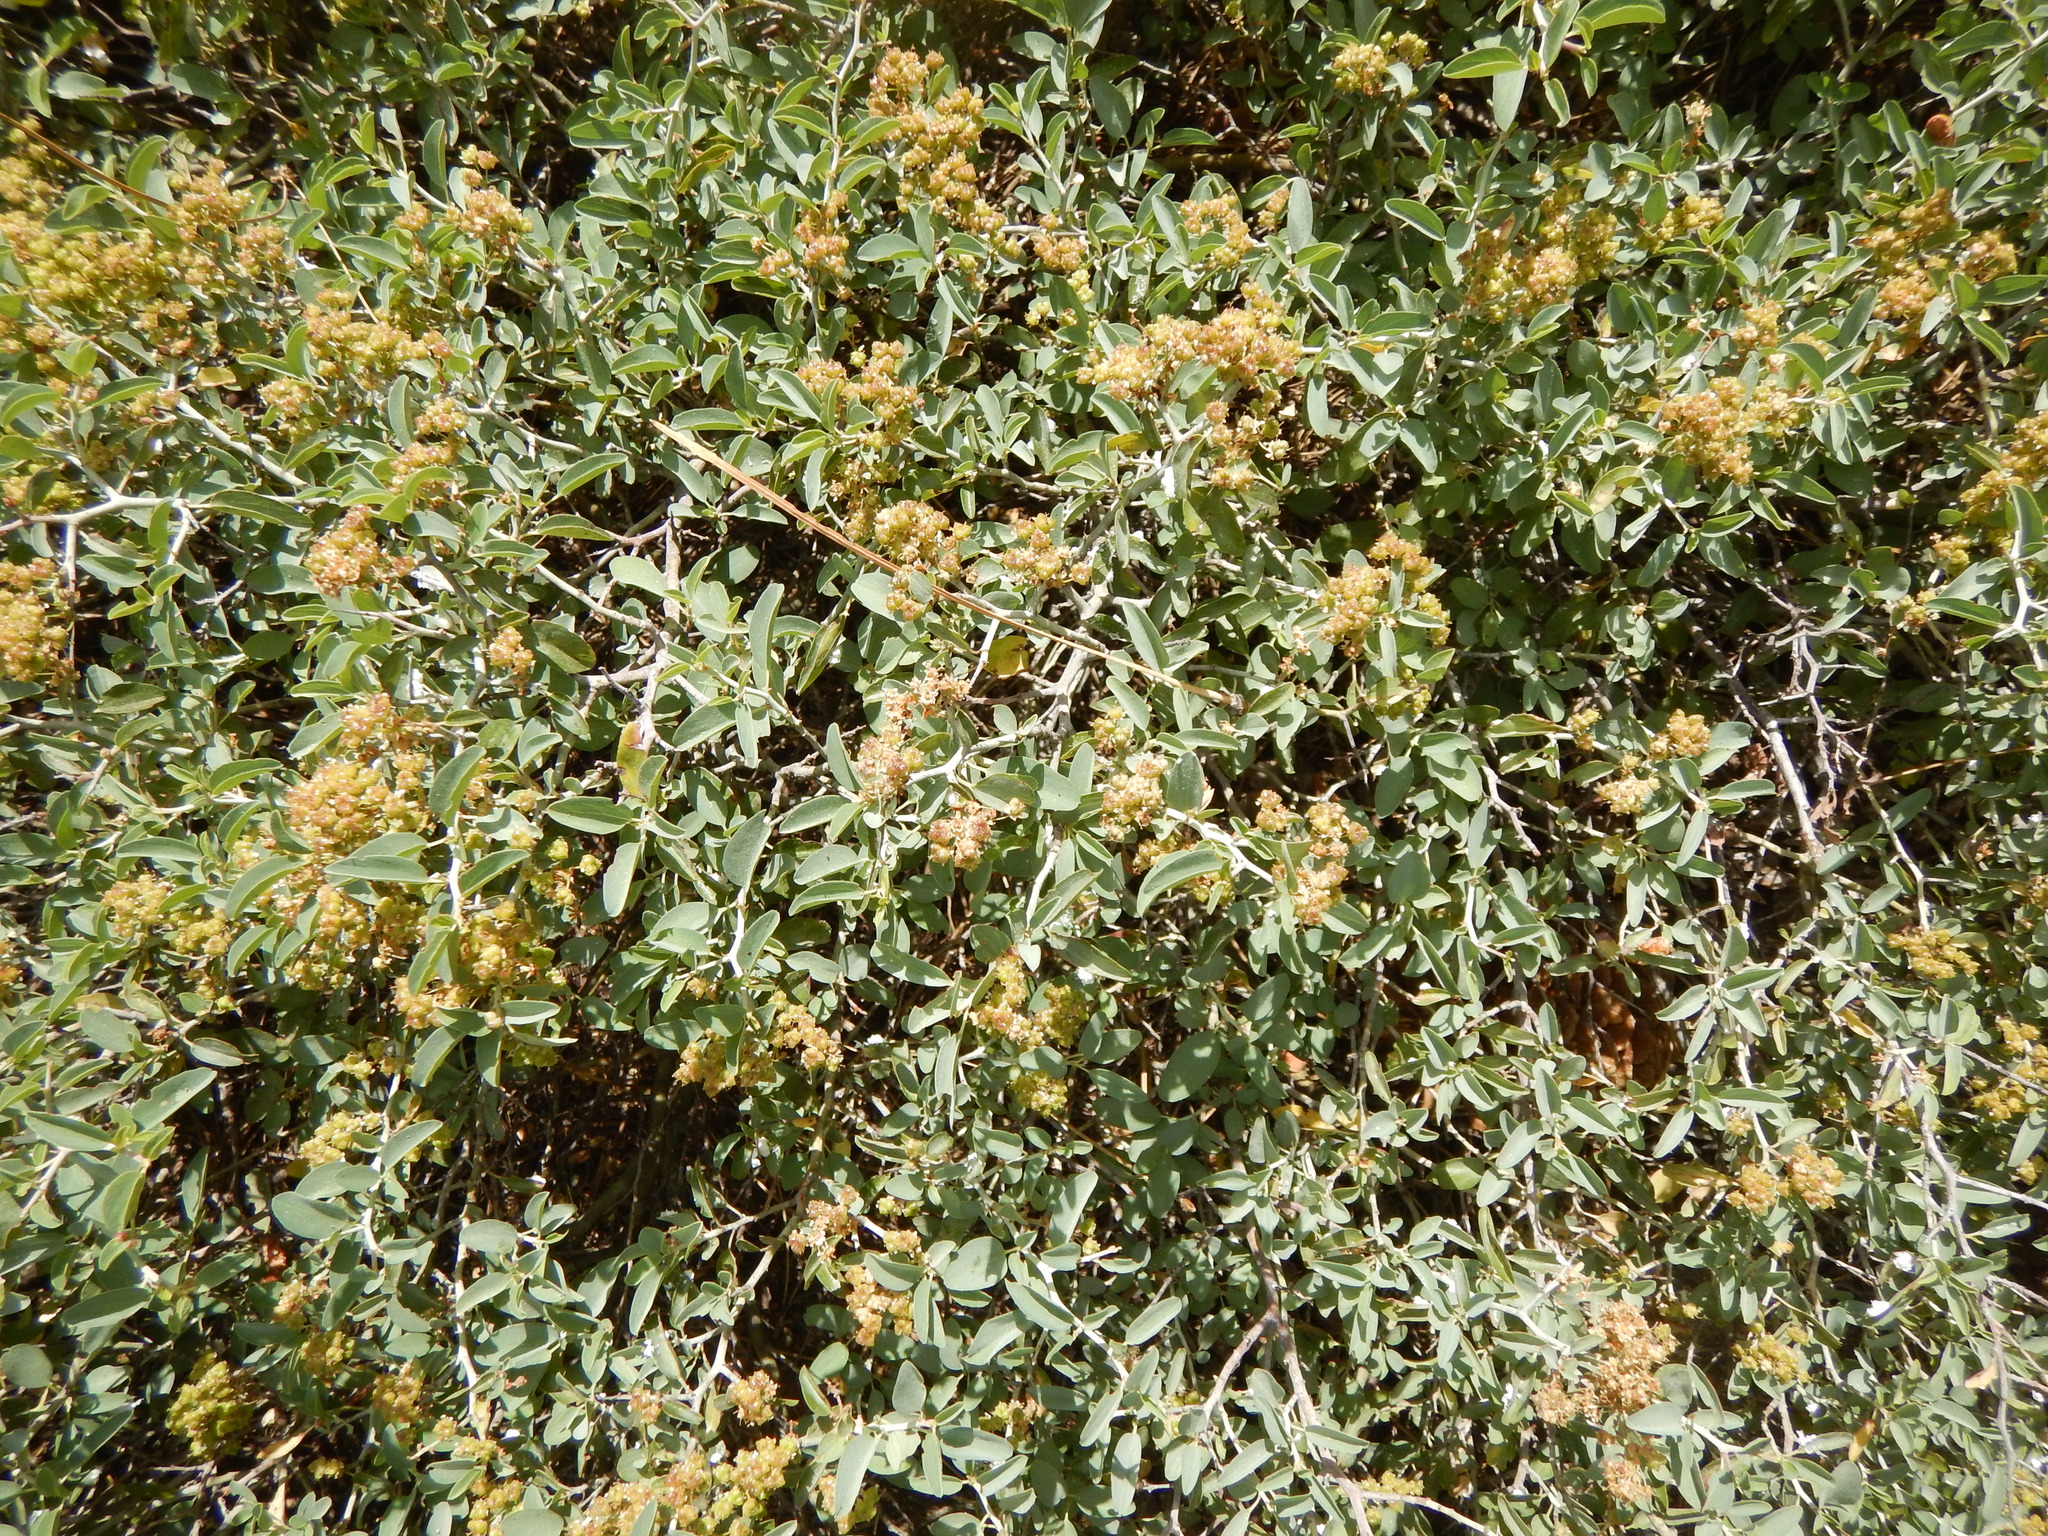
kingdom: Plantae
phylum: Tracheophyta
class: Magnoliopsida
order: Rosales
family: Rhamnaceae
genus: Ceanothus
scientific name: Ceanothus cordulatus
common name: Mountain whitethorn
